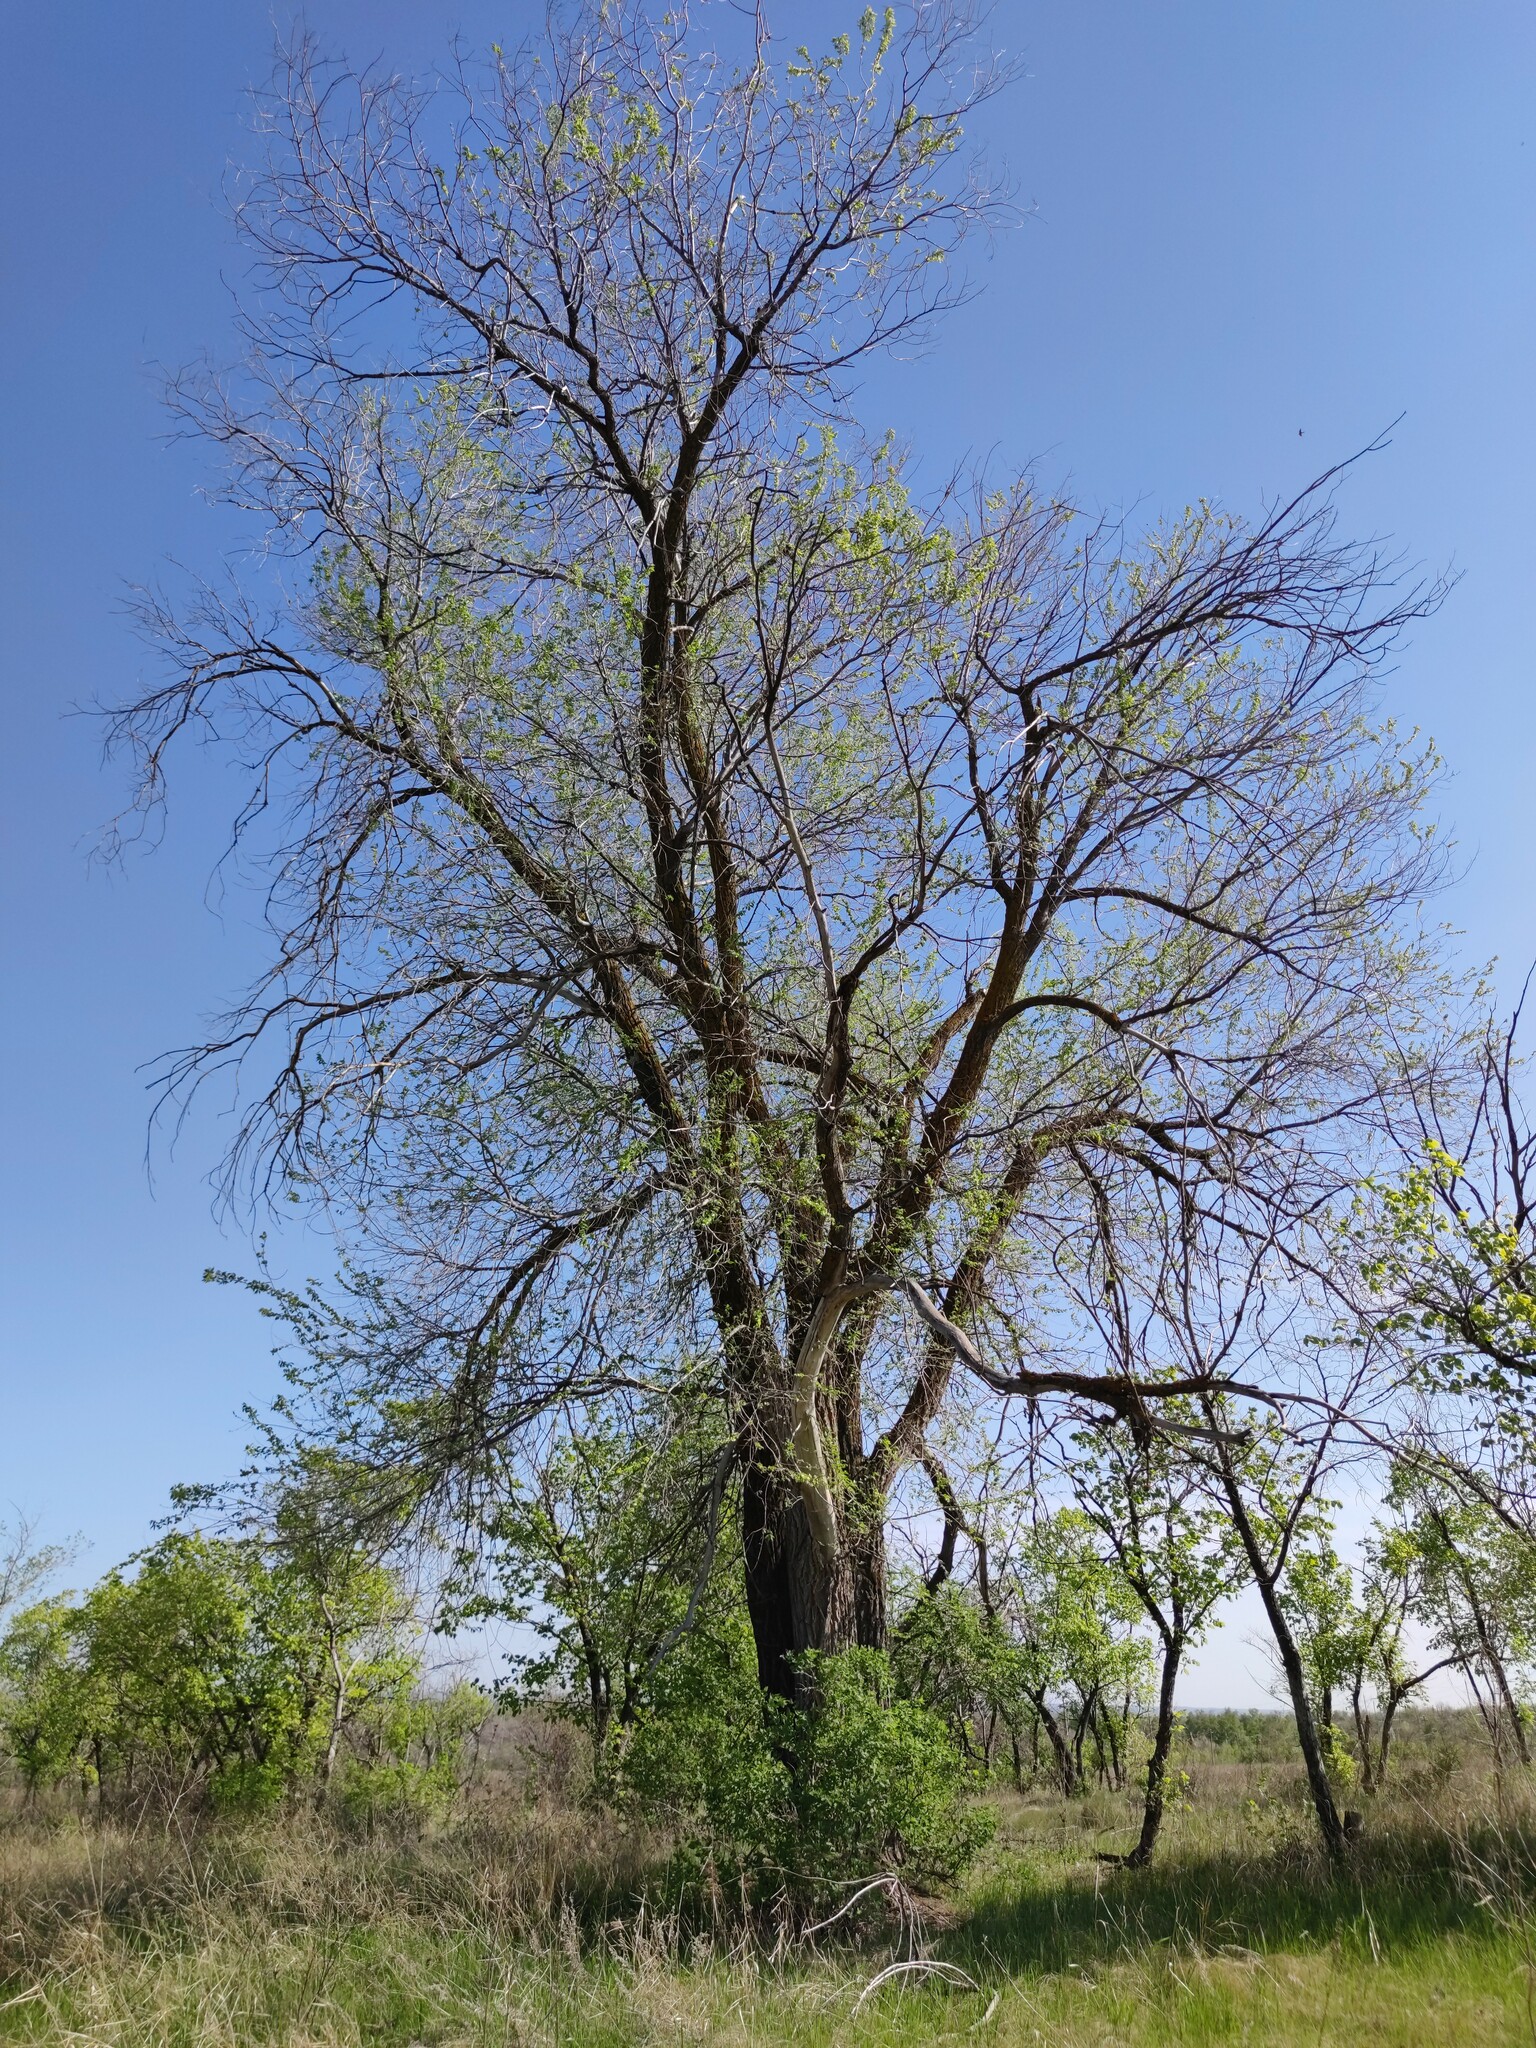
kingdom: Plantae
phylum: Tracheophyta
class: Magnoliopsida
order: Rosales
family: Ulmaceae
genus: Ulmus
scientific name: Ulmus pumila
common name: Siberian elm
